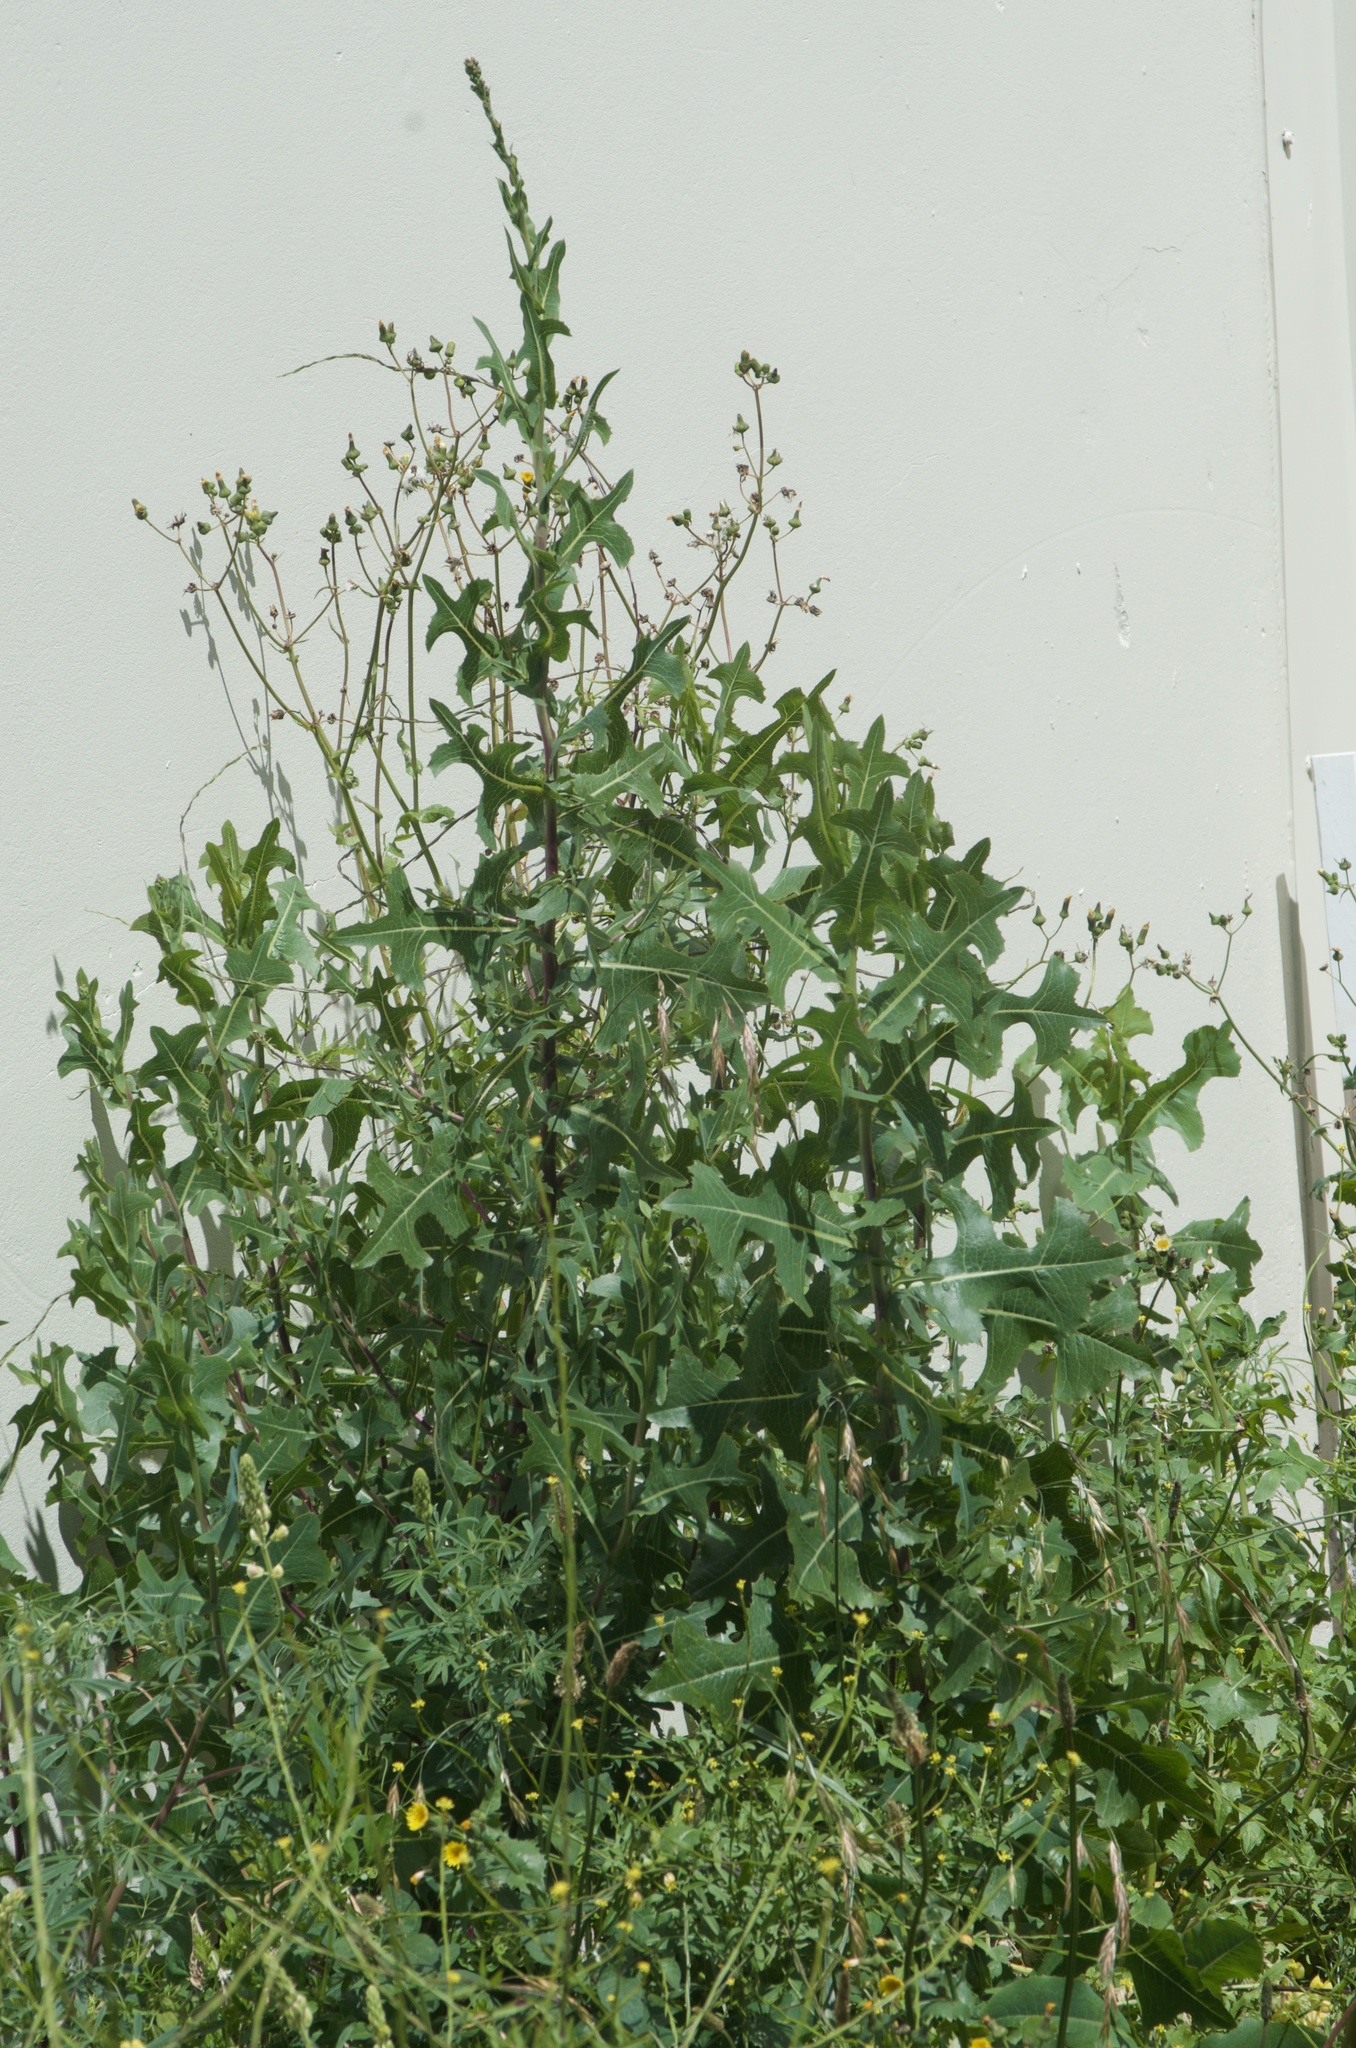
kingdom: Plantae
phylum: Tracheophyta
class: Magnoliopsida
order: Asterales
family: Asteraceae
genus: Lactuca
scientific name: Lactuca serriola
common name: Prickly lettuce
